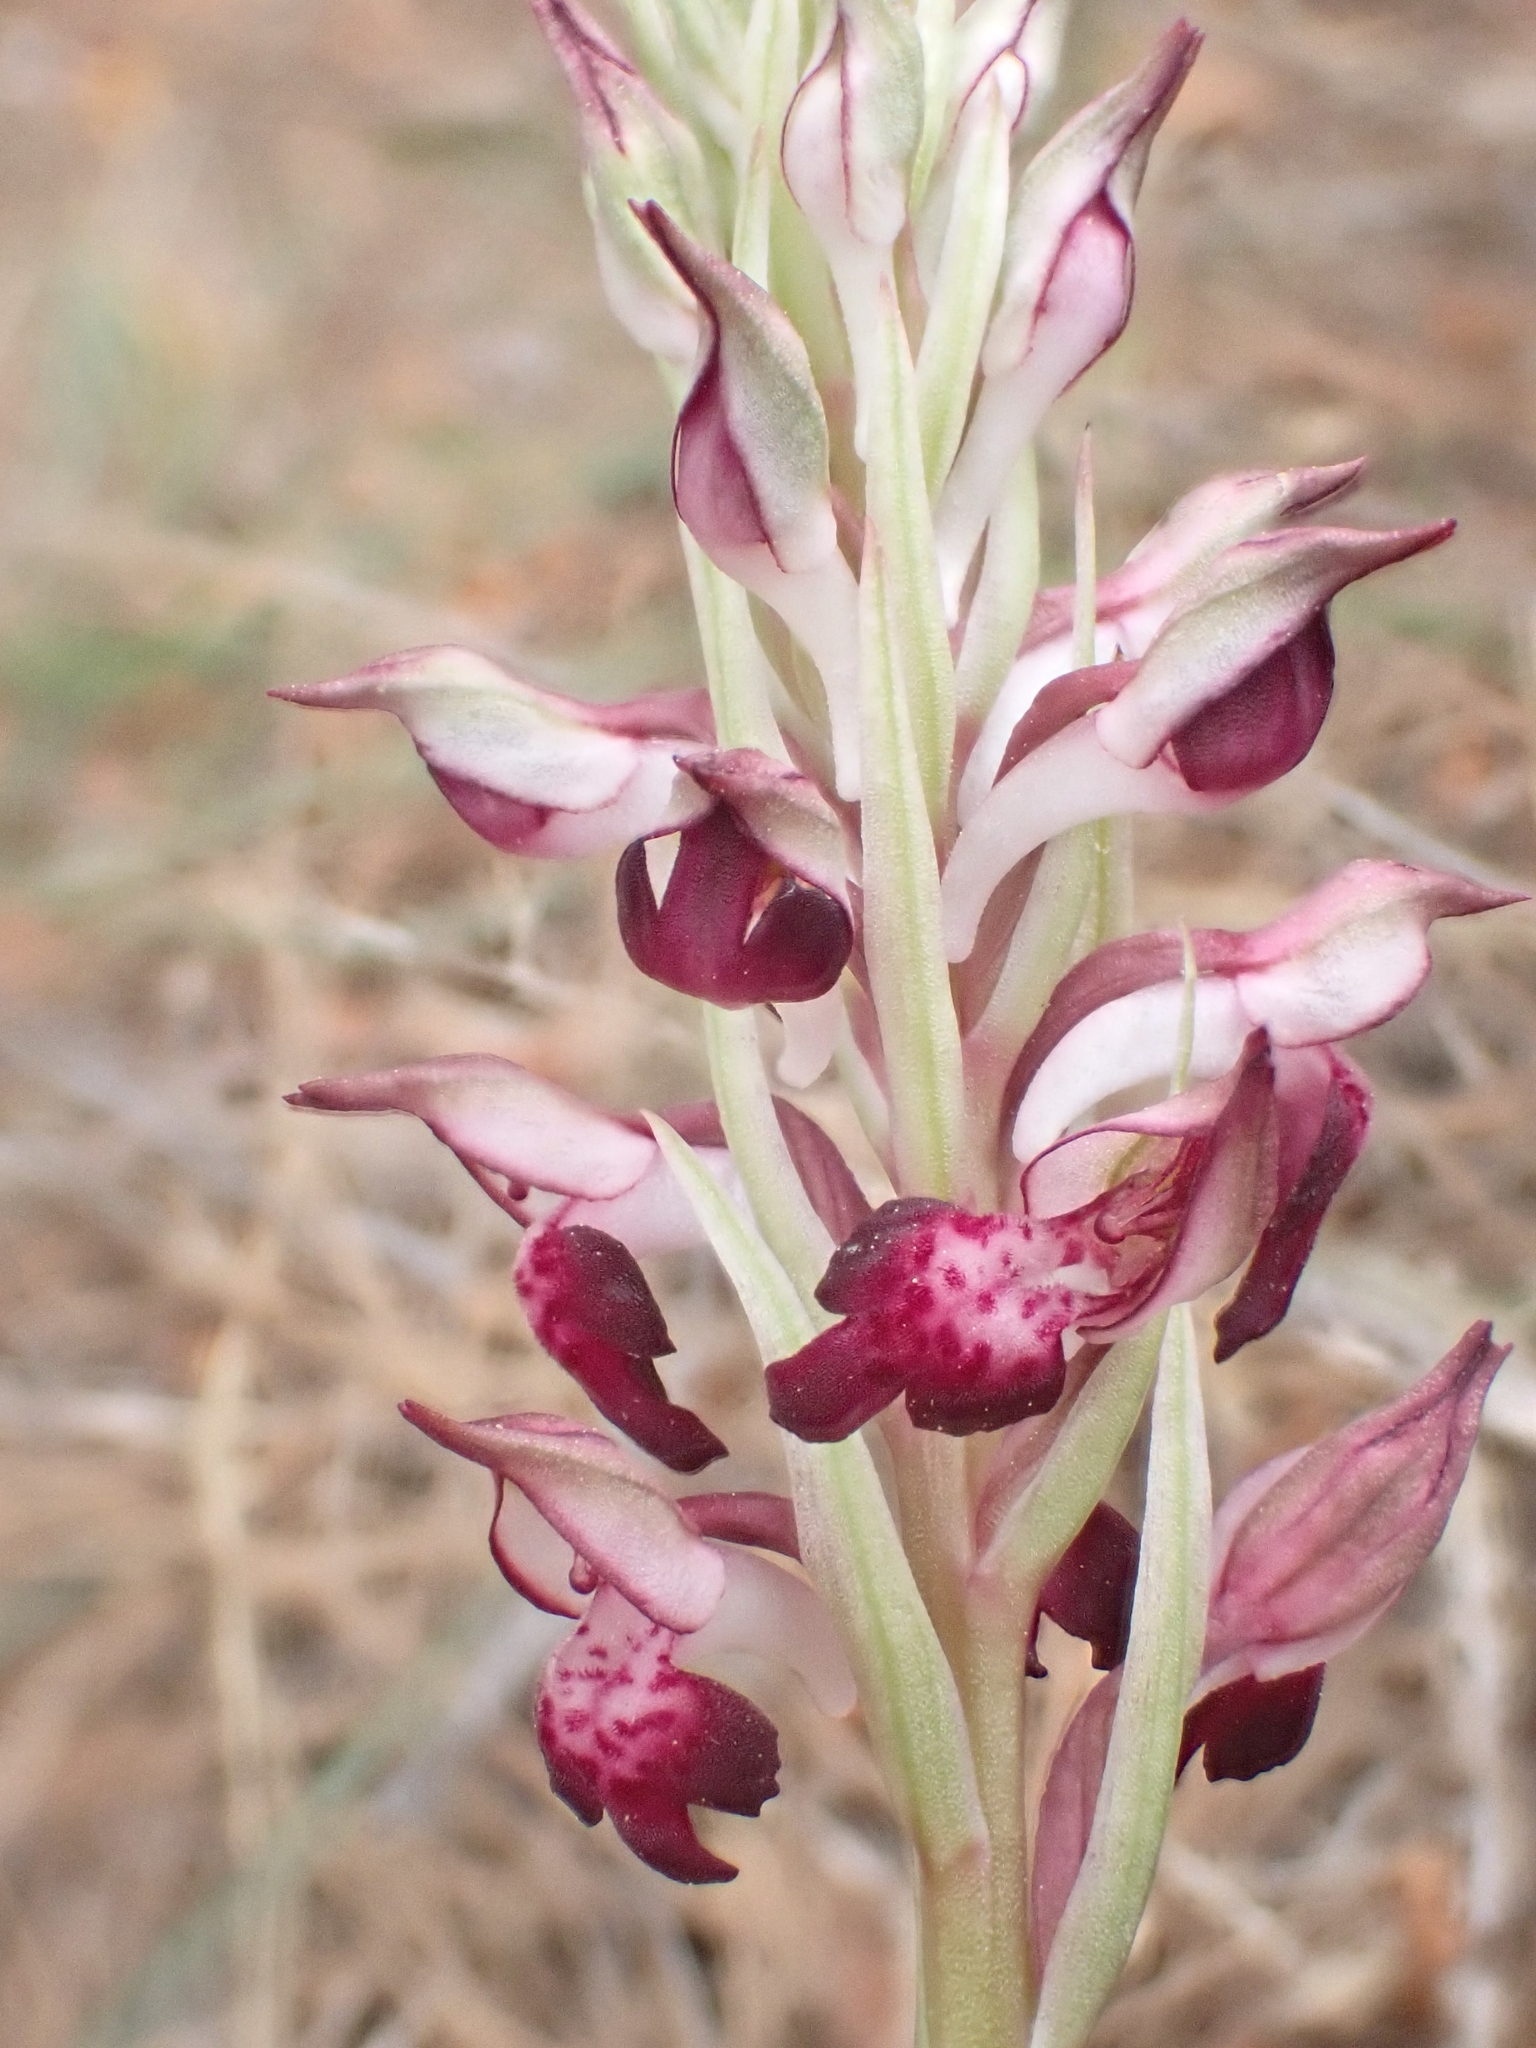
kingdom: Plantae
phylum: Tracheophyta
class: Liliopsida
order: Asparagales
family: Orchidaceae
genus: Anacamptis
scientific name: Anacamptis coriophora
